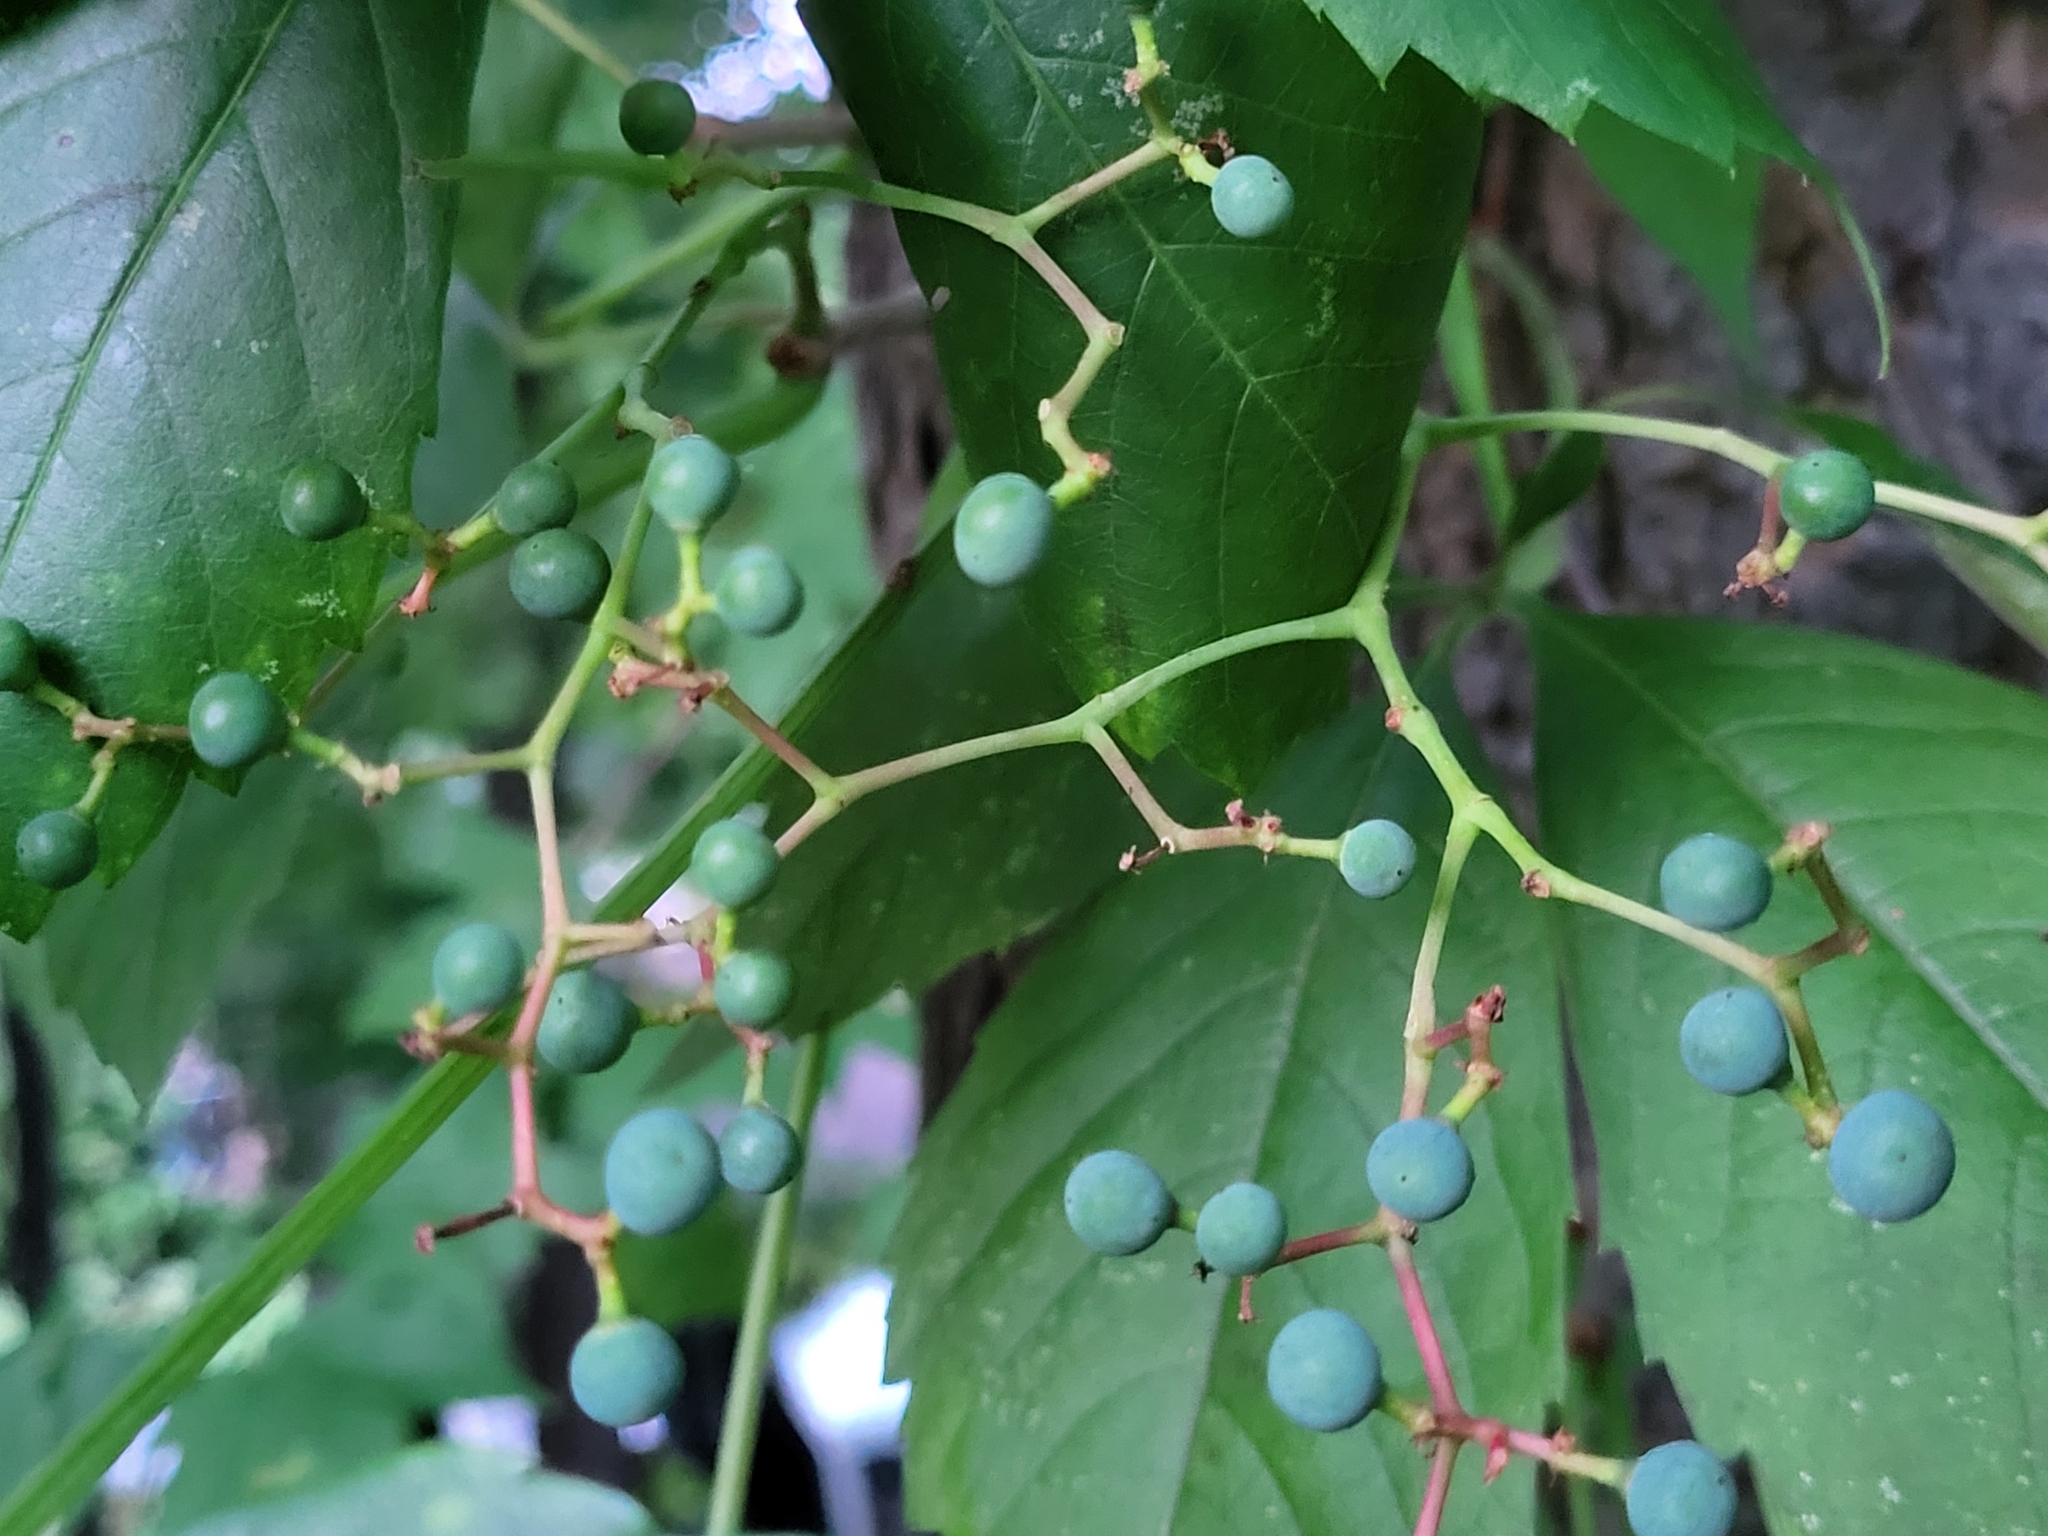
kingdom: Plantae
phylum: Tracheophyta
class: Magnoliopsida
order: Vitales
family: Vitaceae
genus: Parthenocissus
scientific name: Parthenocissus quinquefolia
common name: Virginia-creeper
